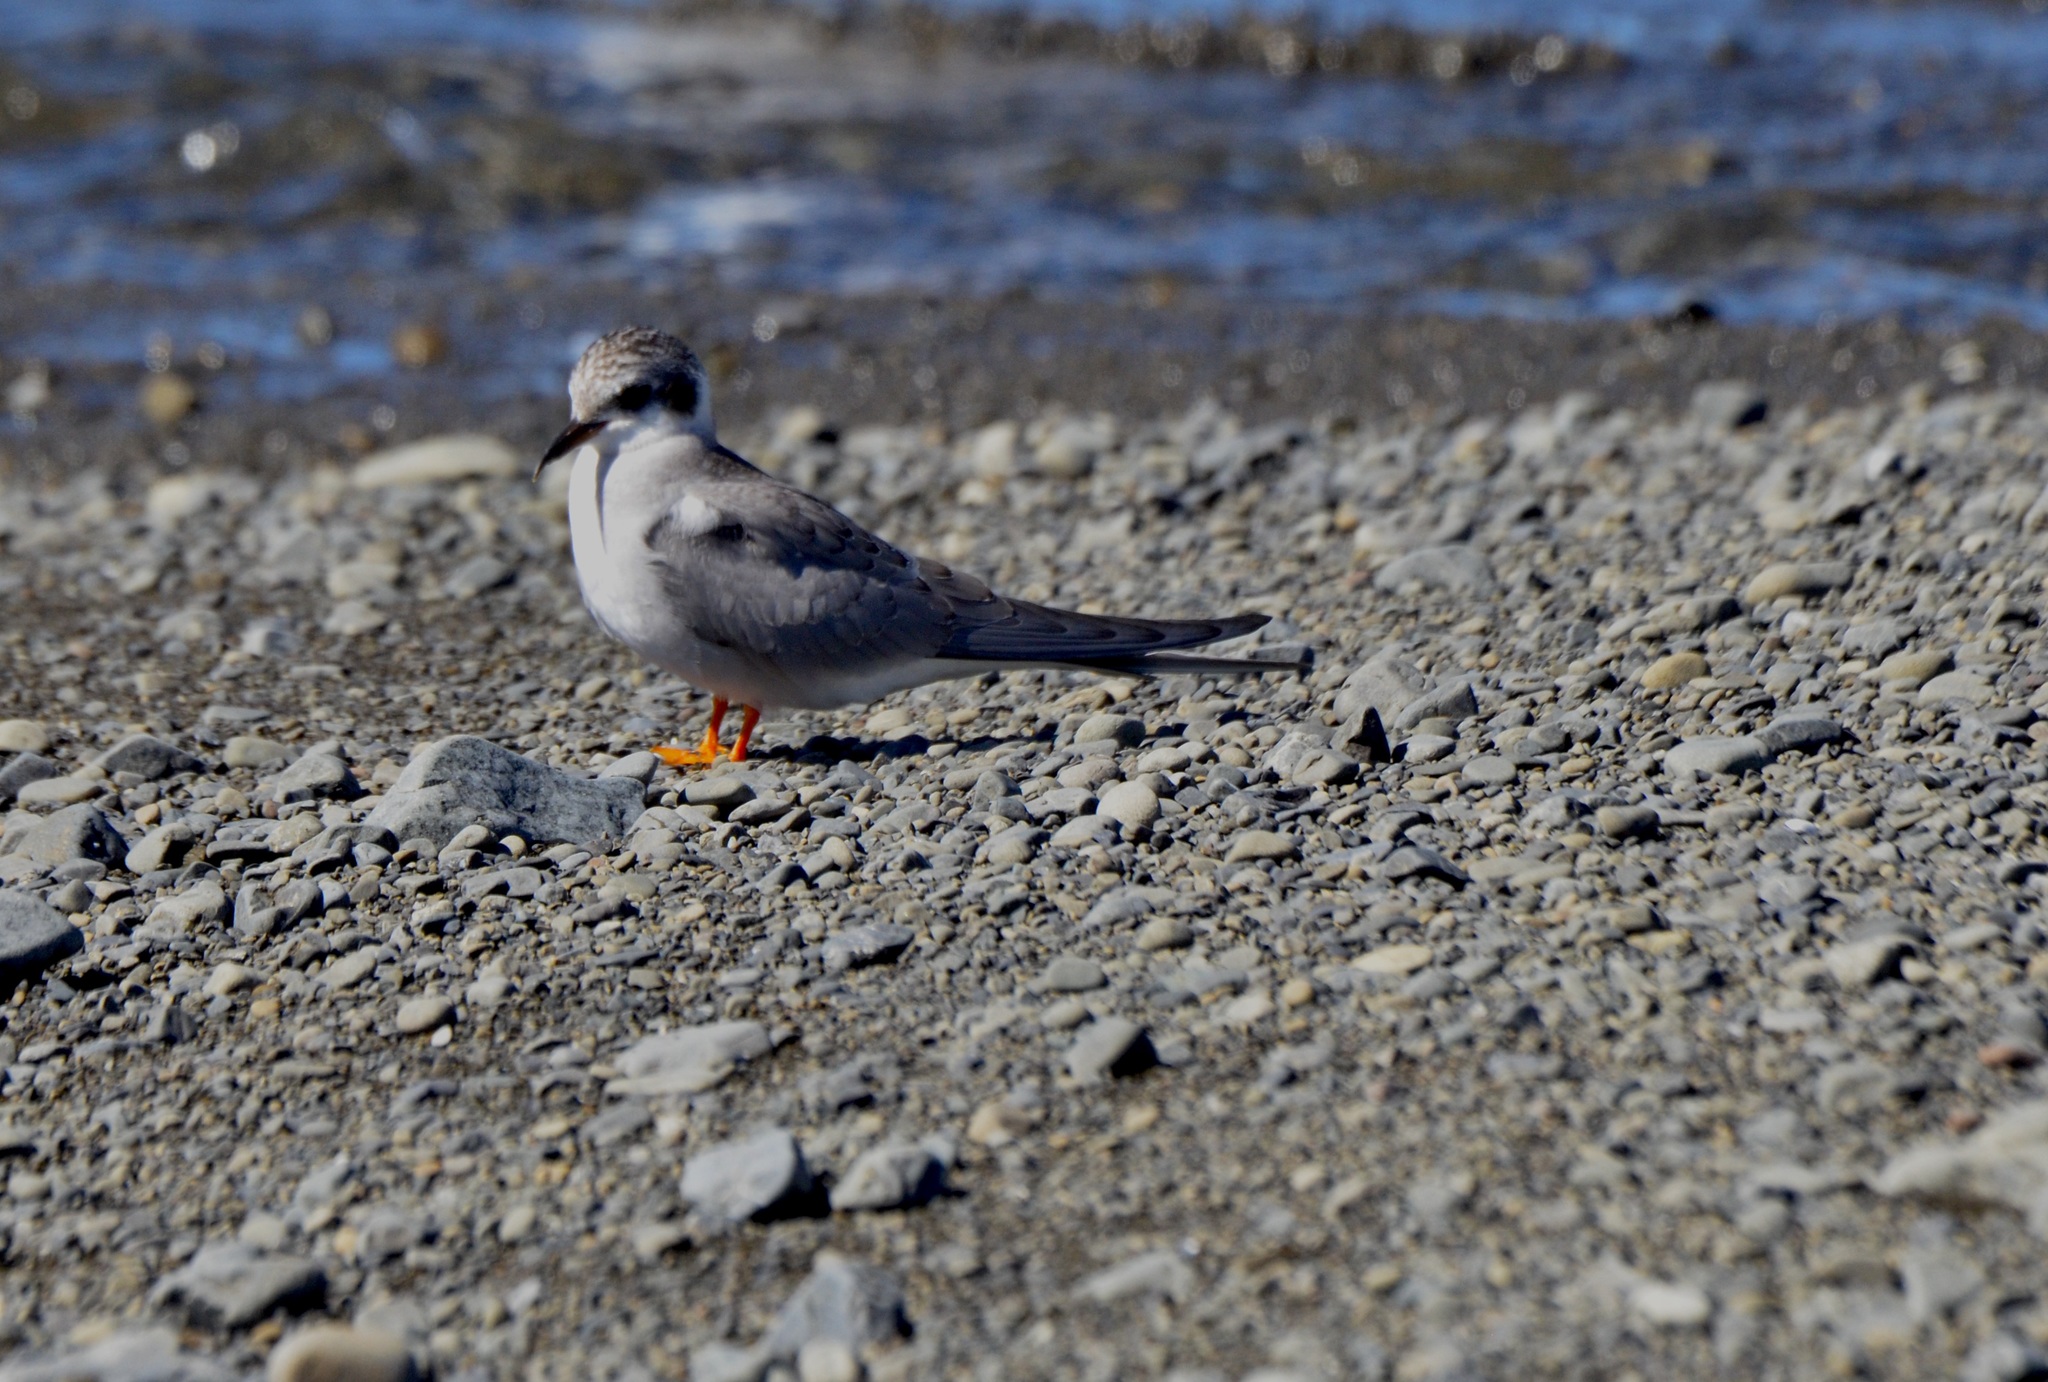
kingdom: Animalia
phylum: Chordata
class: Aves
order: Charadriiformes
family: Laridae
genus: Chlidonias
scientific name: Chlidonias albostriatus
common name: Black-fronted tern
